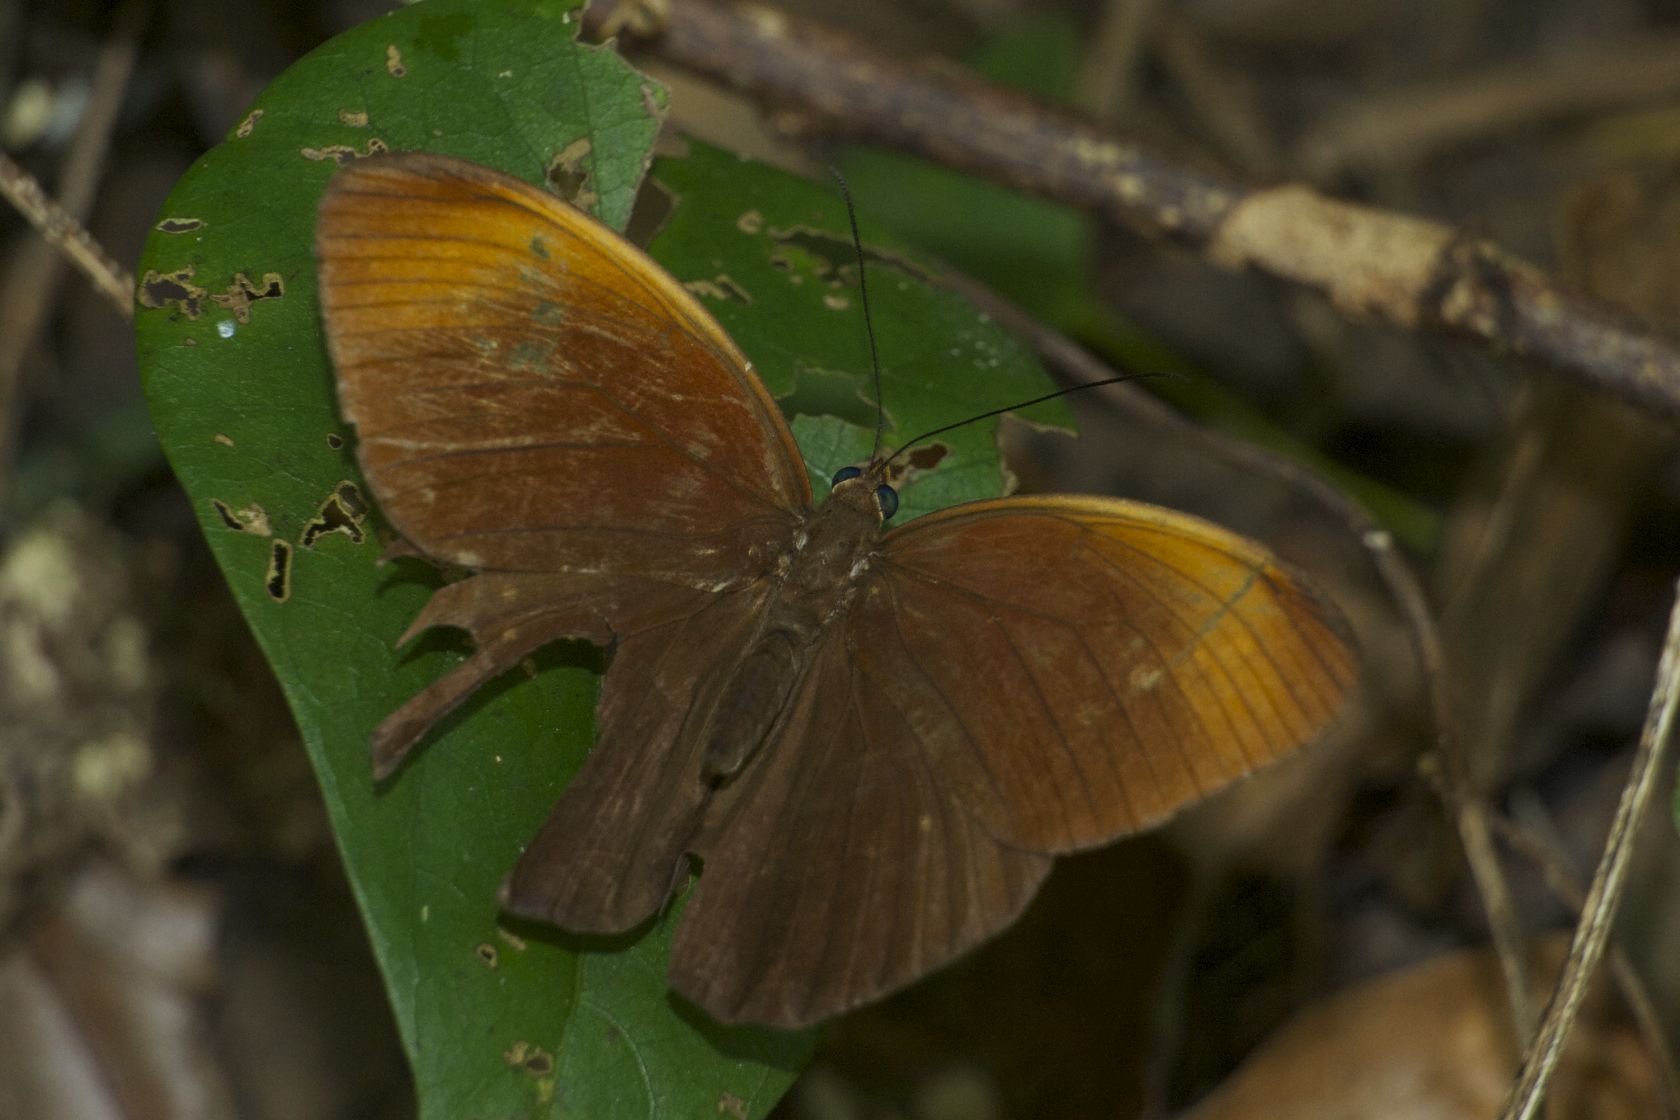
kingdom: Animalia
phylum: Arthropoda
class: Insecta
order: Lepidoptera
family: Nymphalidae
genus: Faunis
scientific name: Faunis eumeus
